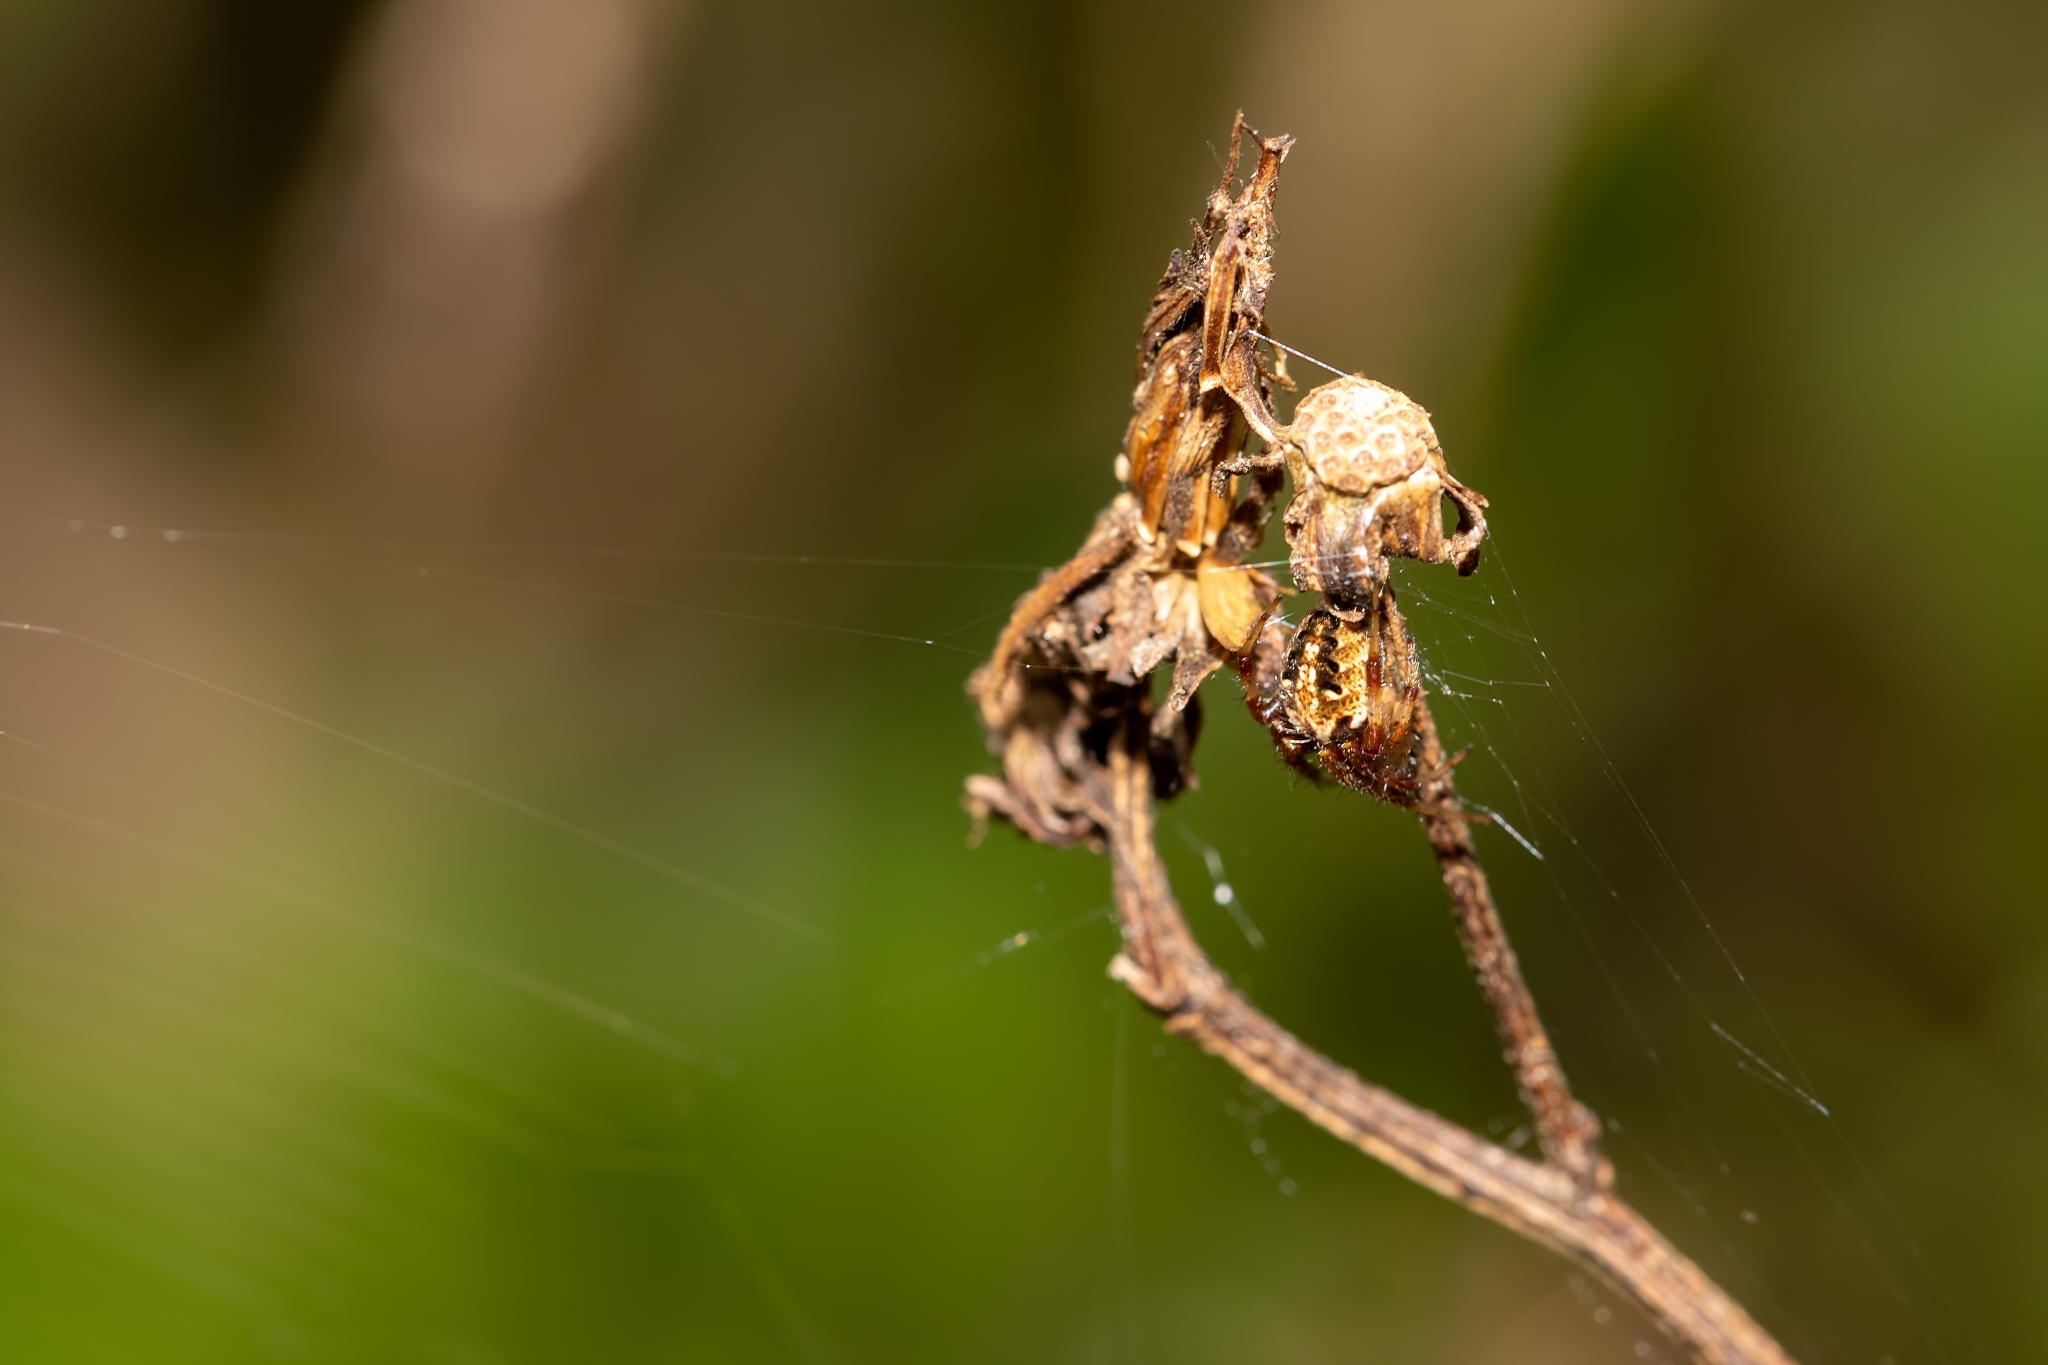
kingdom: Animalia
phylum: Arthropoda
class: Arachnida
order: Araneae
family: Araneidae
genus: Neoscona
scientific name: Neoscona arabesca
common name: Orb weavers
